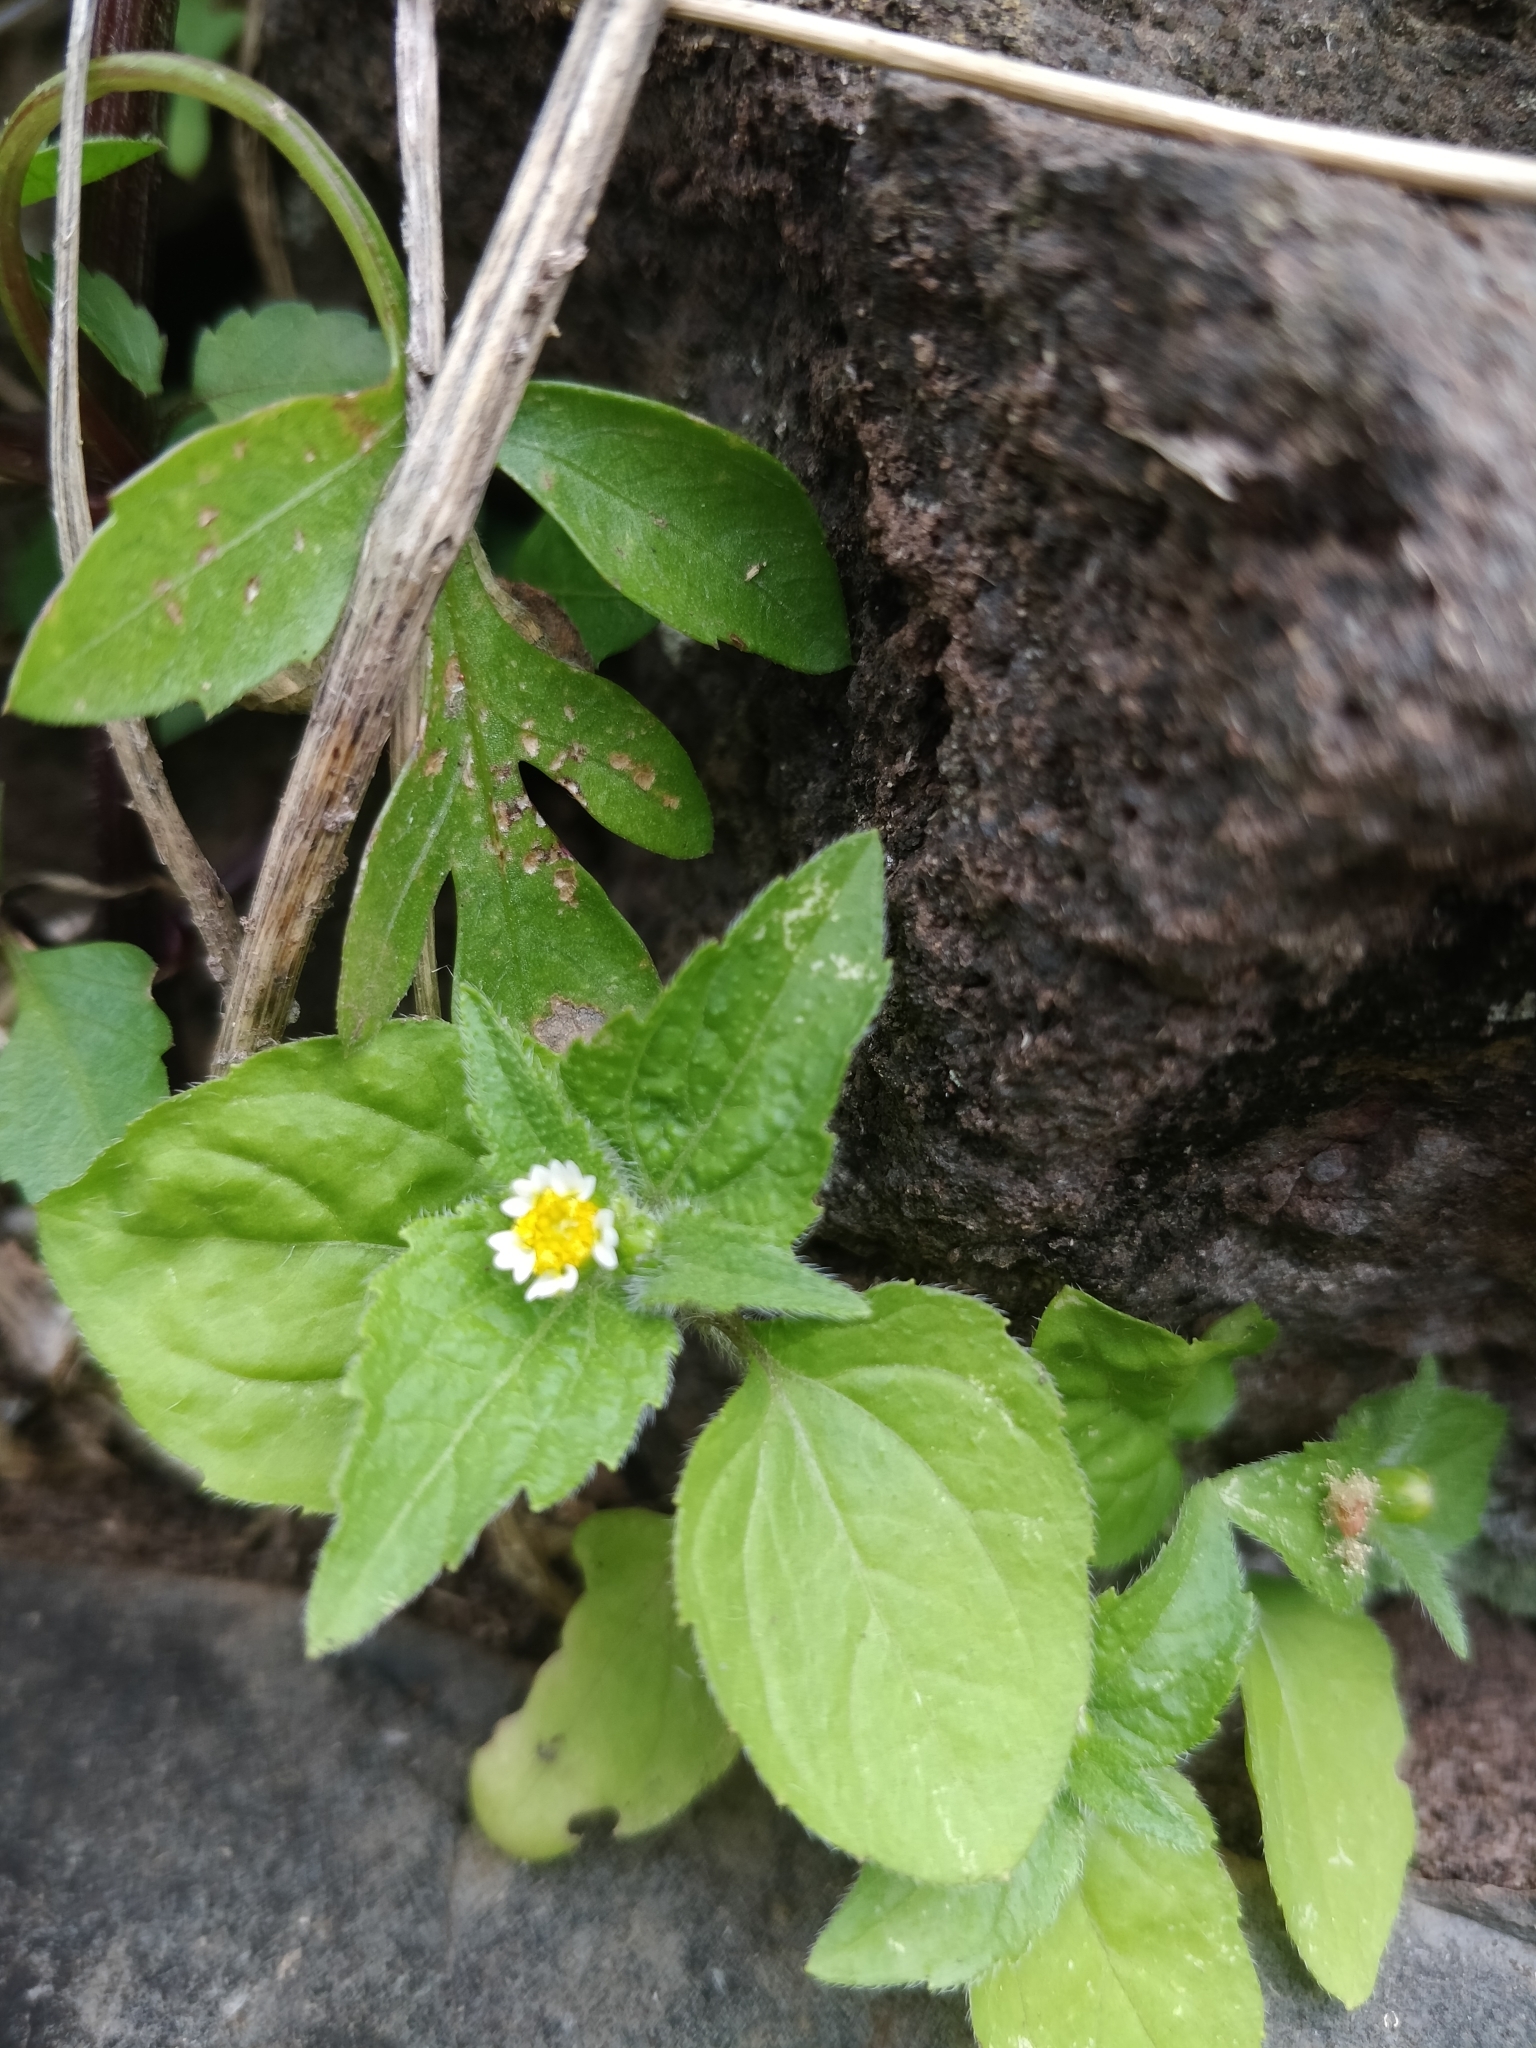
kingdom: Plantae
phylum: Tracheophyta
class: Magnoliopsida
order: Asterales
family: Asteraceae
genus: Galinsoga
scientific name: Galinsoga quadriradiata
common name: Shaggy soldier
